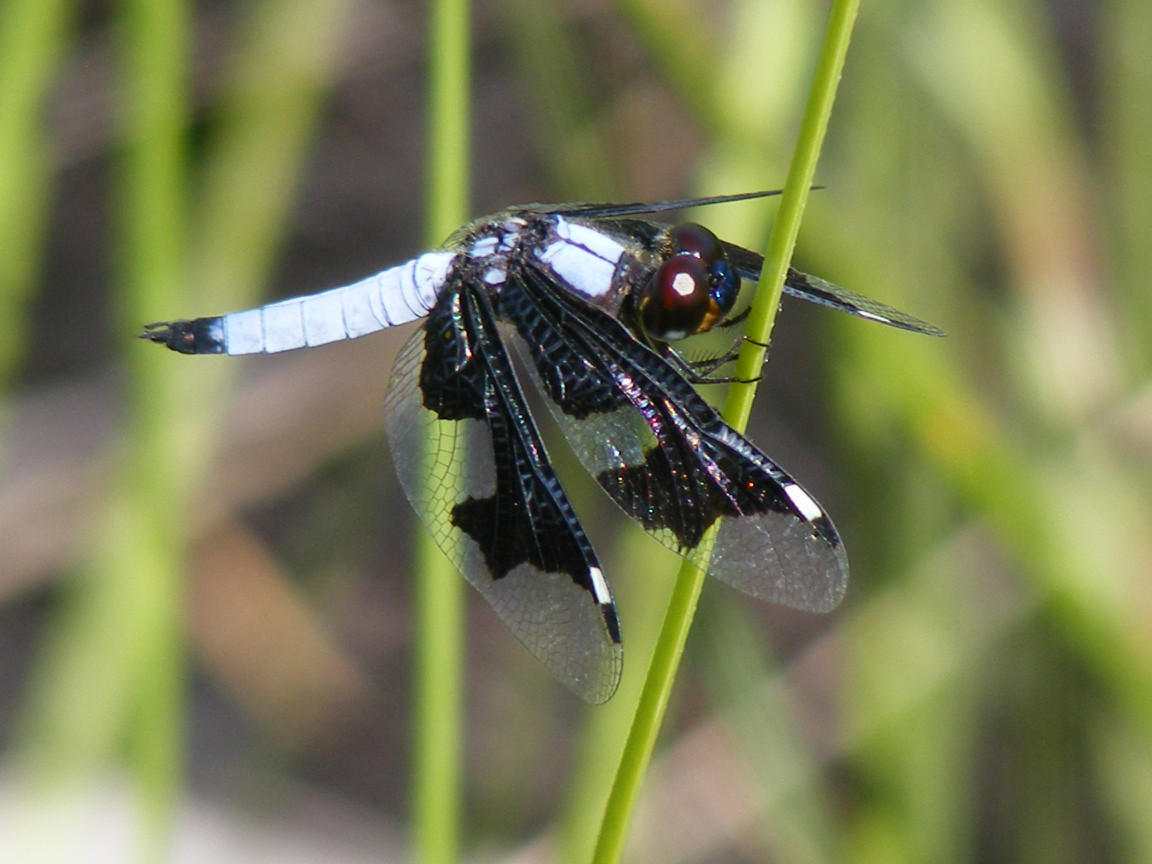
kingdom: Animalia
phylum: Arthropoda
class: Insecta
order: Odonata
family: Libellulidae
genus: Palpopleura
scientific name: Palpopleura portia
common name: Portia widow
